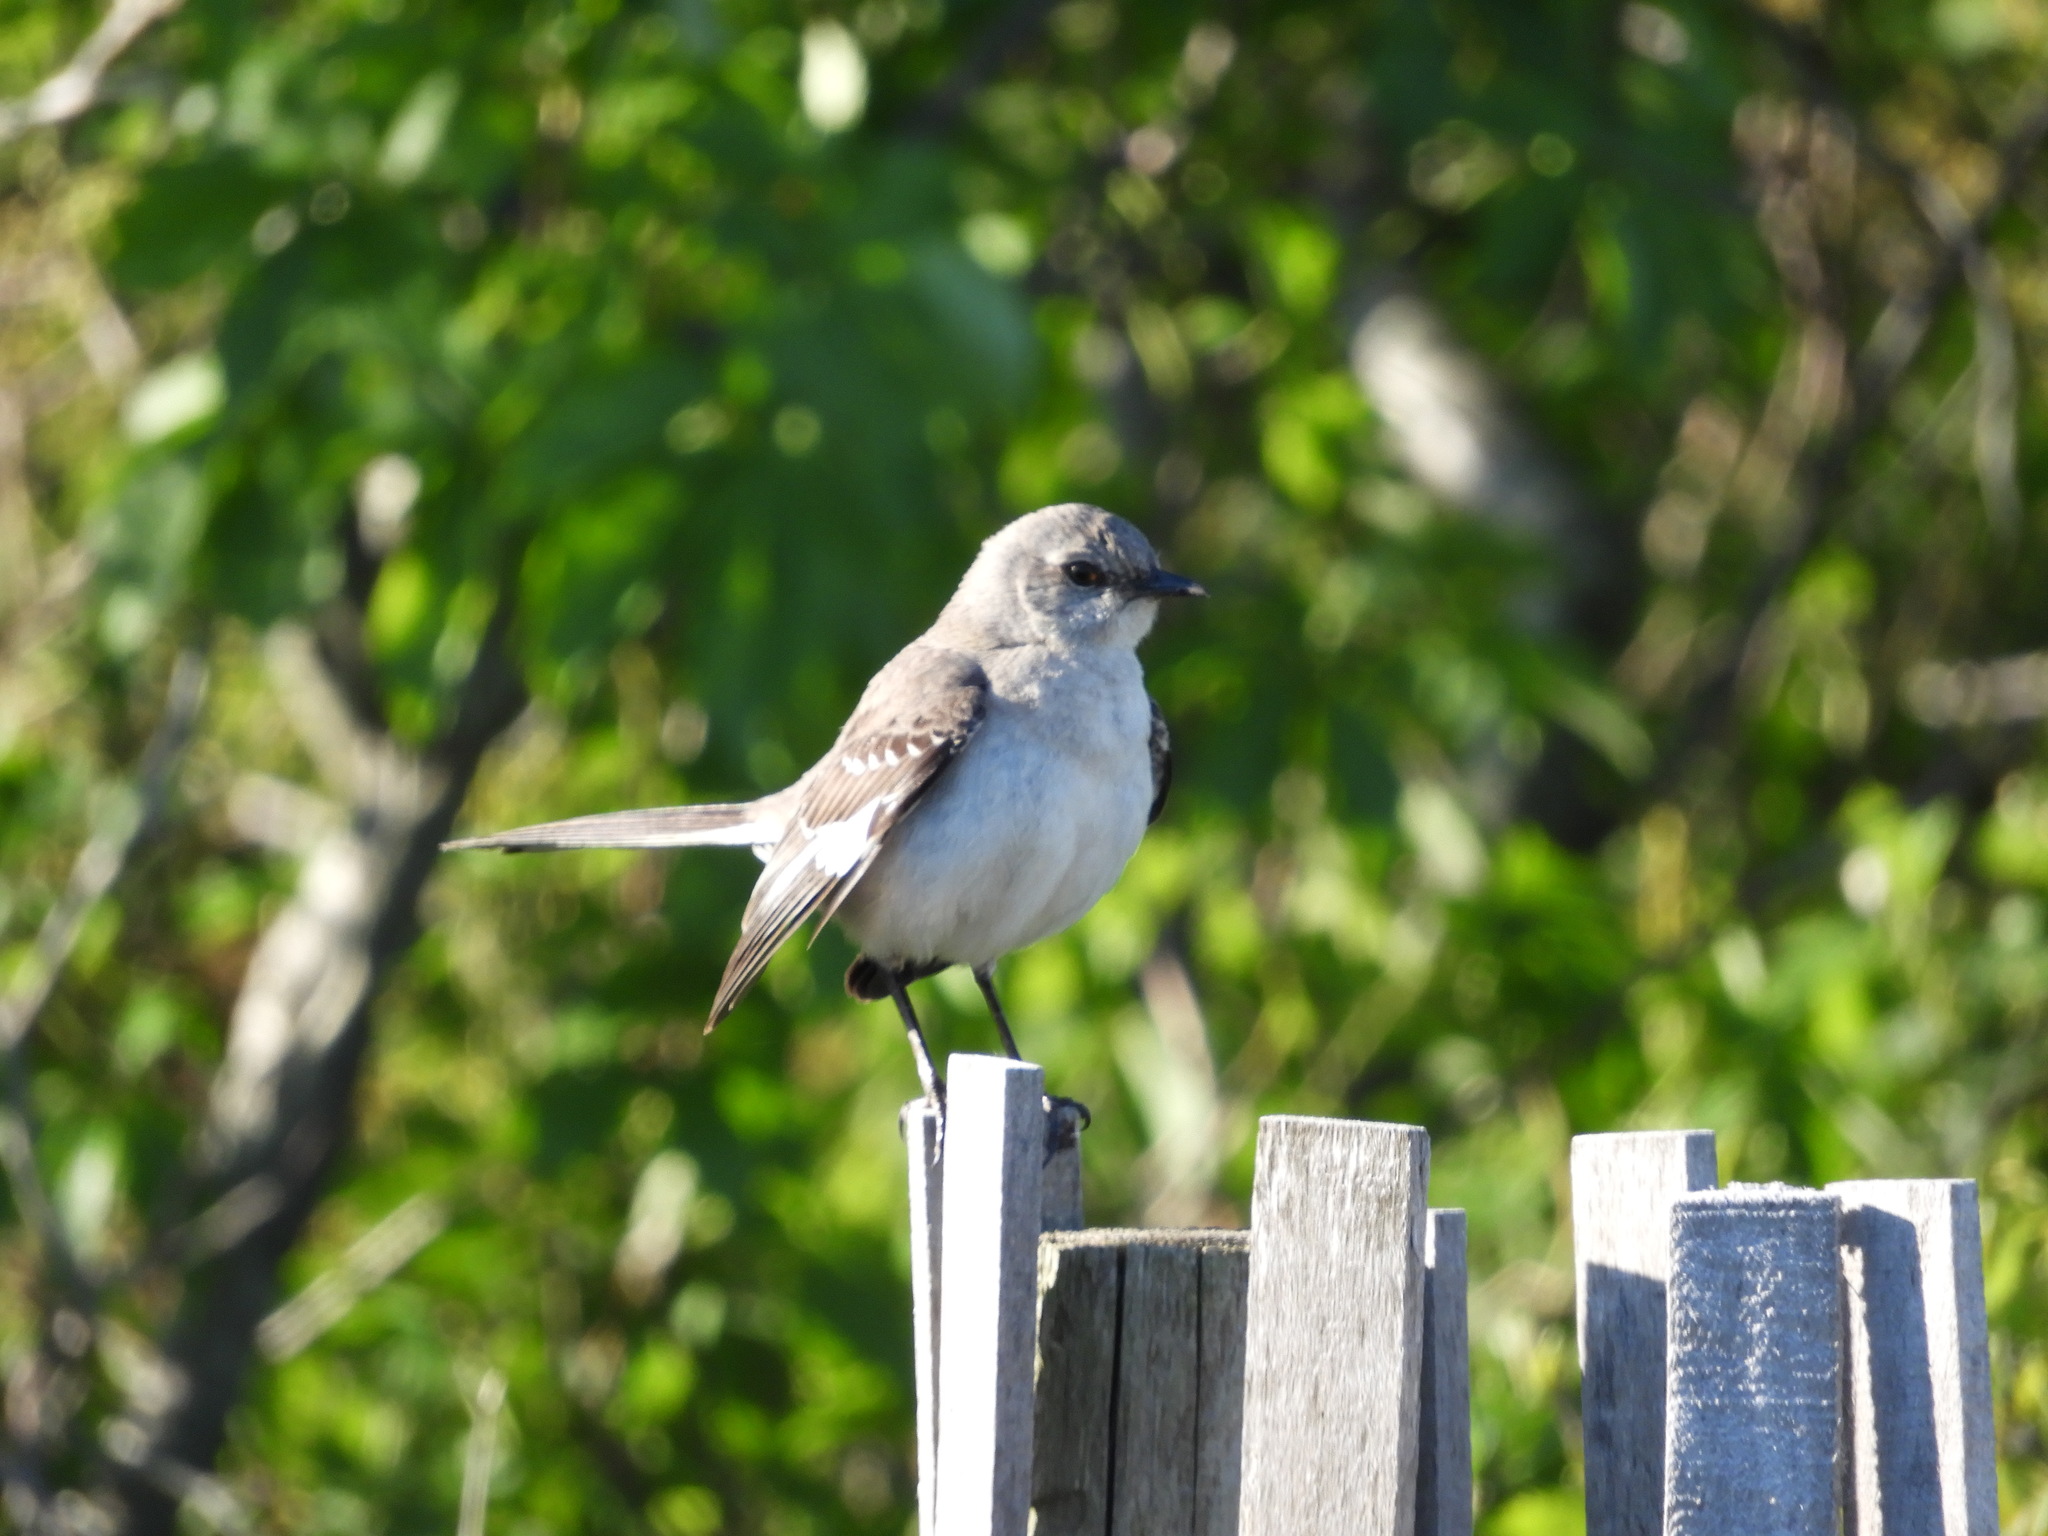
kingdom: Animalia
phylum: Chordata
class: Aves
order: Passeriformes
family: Mimidae
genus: Mimus
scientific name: Mimus polyglottos
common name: Northern mockingbird
